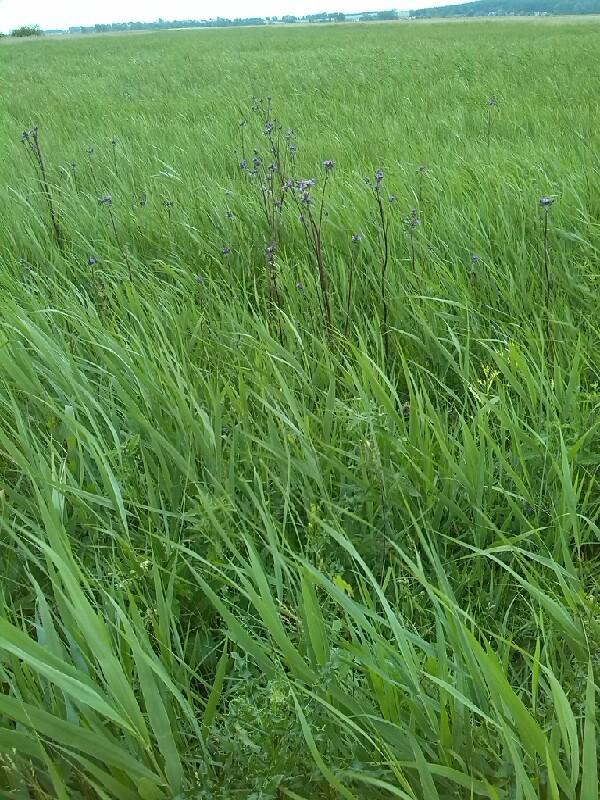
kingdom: Plantae
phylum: Tracheophyta
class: Magnoliopsida
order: Asterales
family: Asteraceae
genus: Cirsium
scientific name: Cirsium palustre
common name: Marsh thistle
